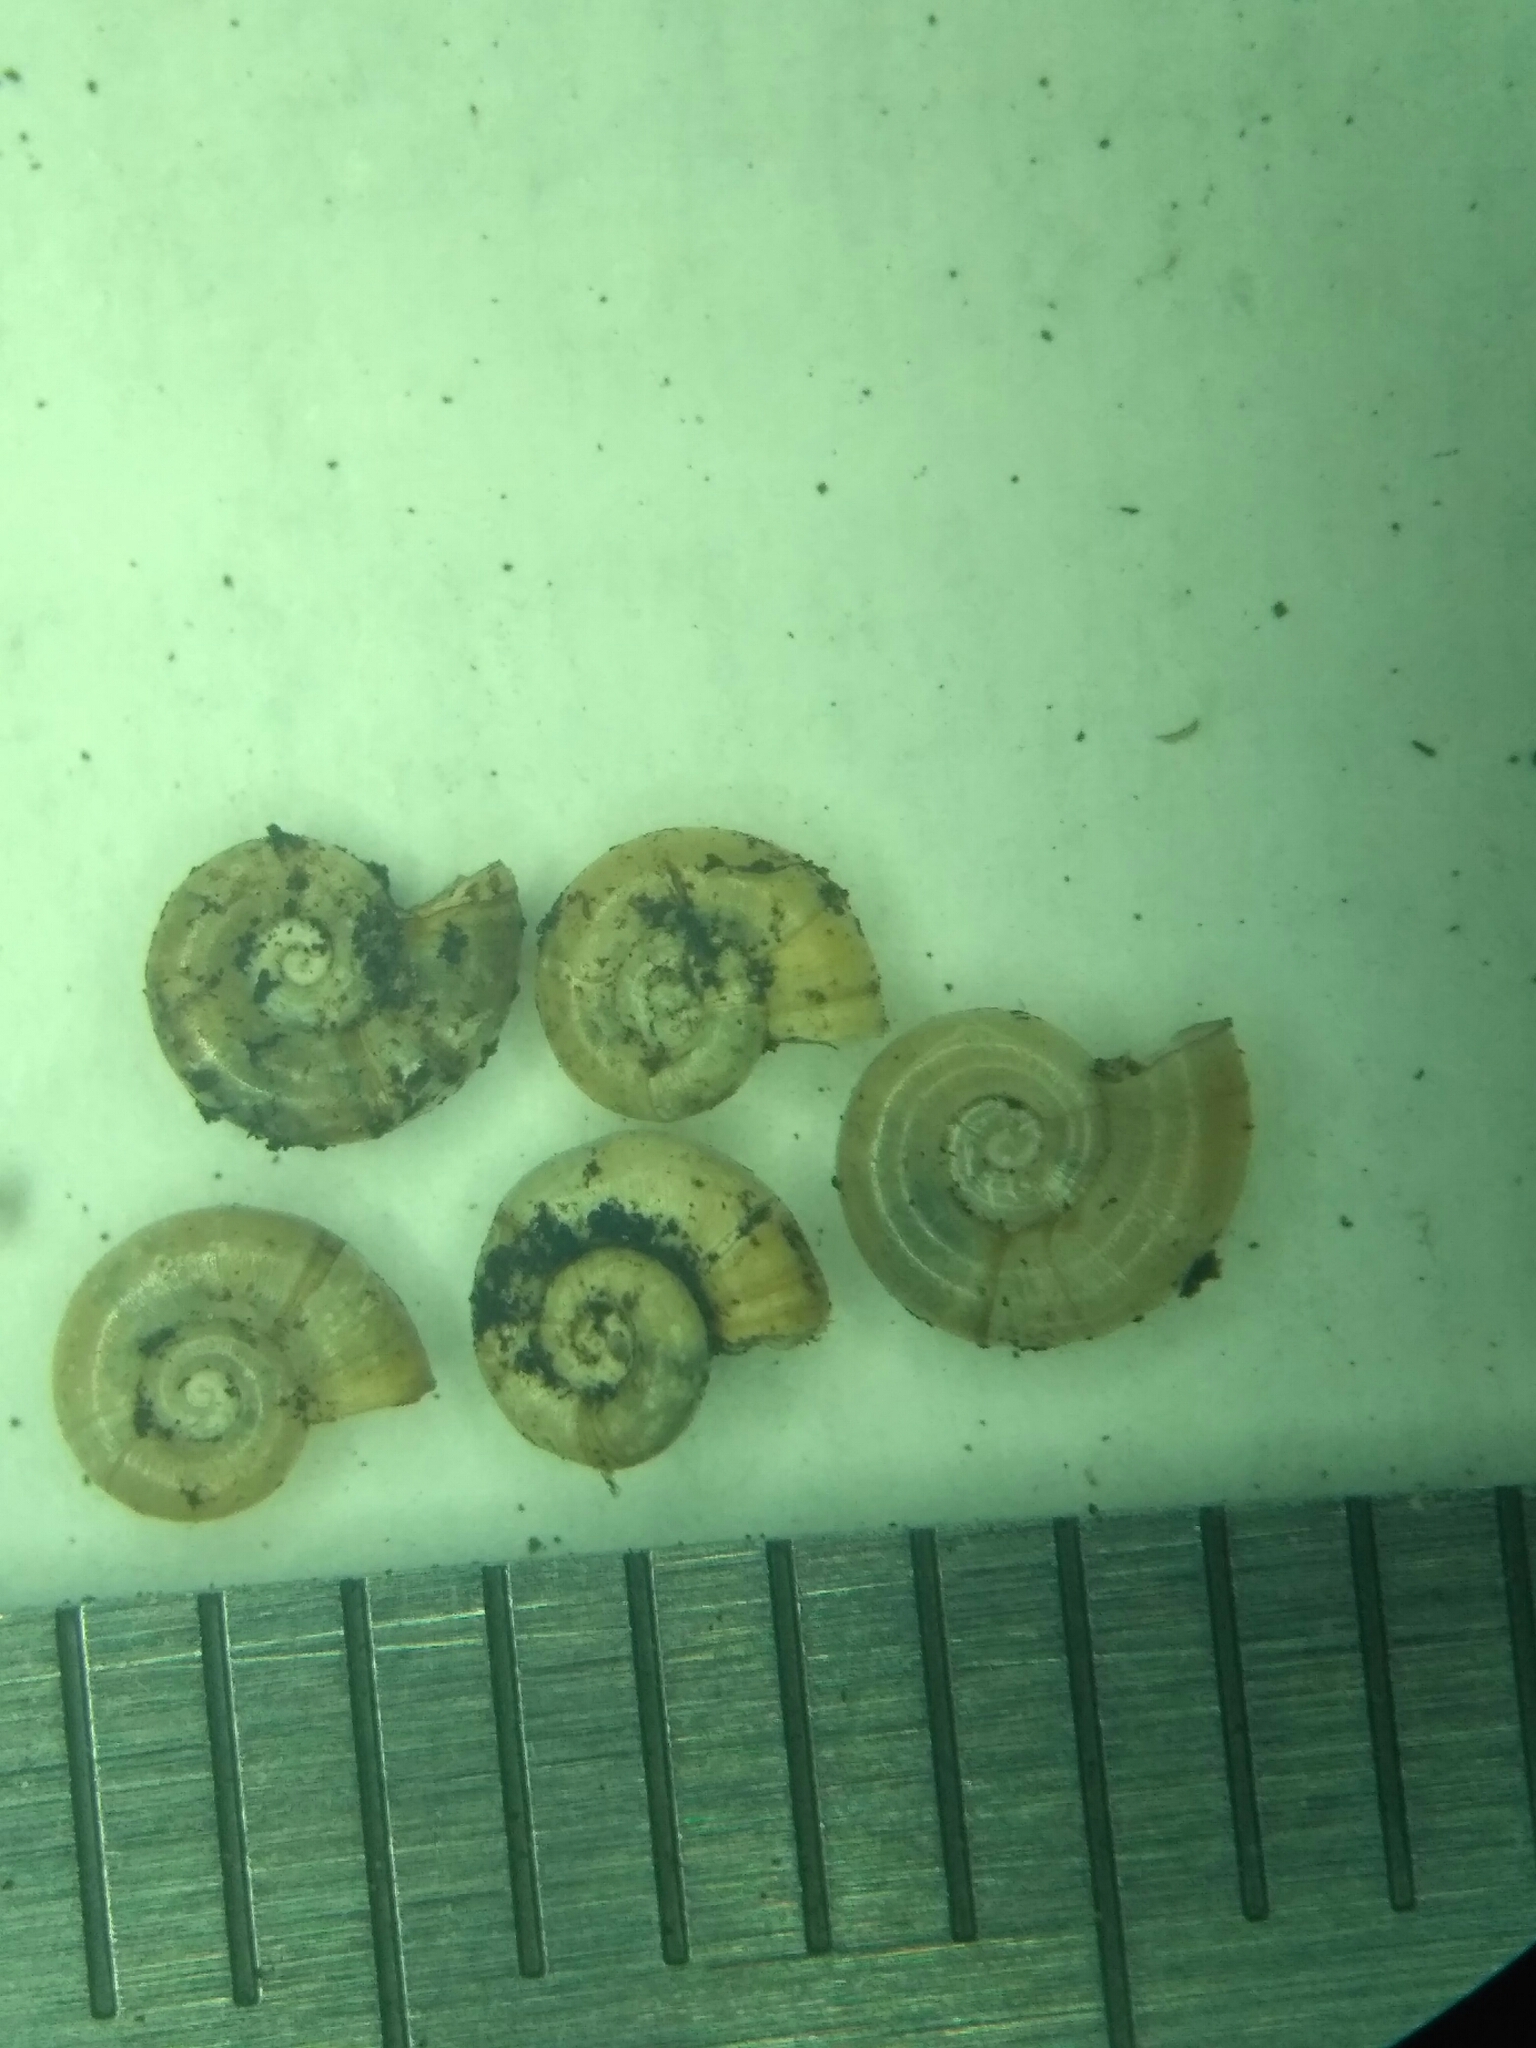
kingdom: Animalia
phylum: Mollusca
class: Gastropoda
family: Valvatidae
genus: Valvata
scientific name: Valvata cristata
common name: Flat valve snail
